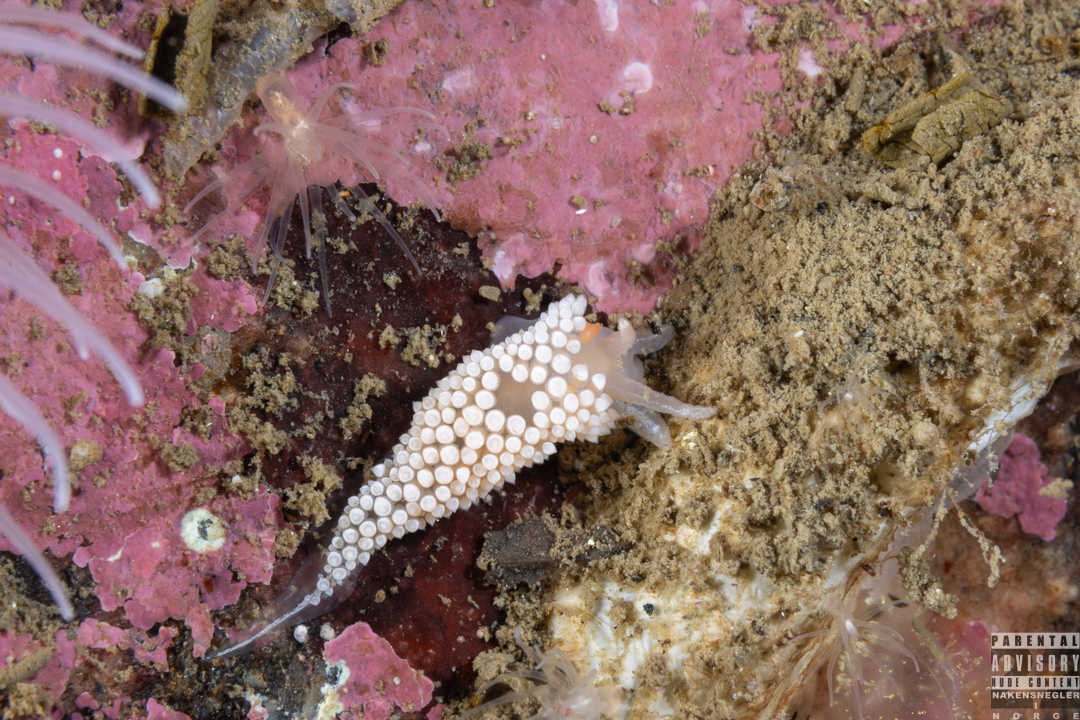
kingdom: Animalia
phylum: Mollusca
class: Gastropoda
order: Nudibranchia
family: Coryphellidae
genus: Coryphella
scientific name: Coryphella verrucosa
